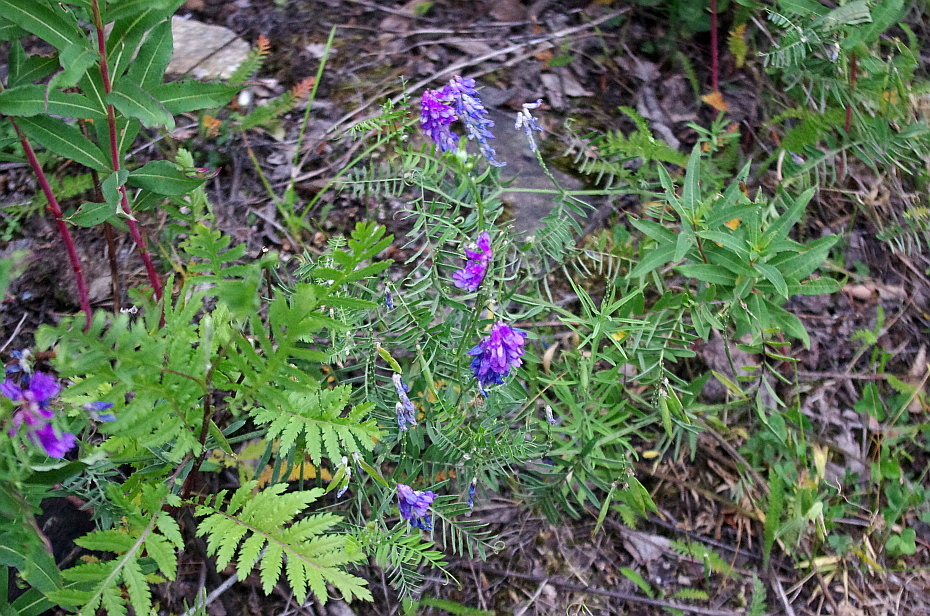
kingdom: Plantae
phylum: Tracheophyta
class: Magnoliopsida
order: Fabales
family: Fabaceae
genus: Vicia
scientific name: Vicia cracca
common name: Bird vetch
